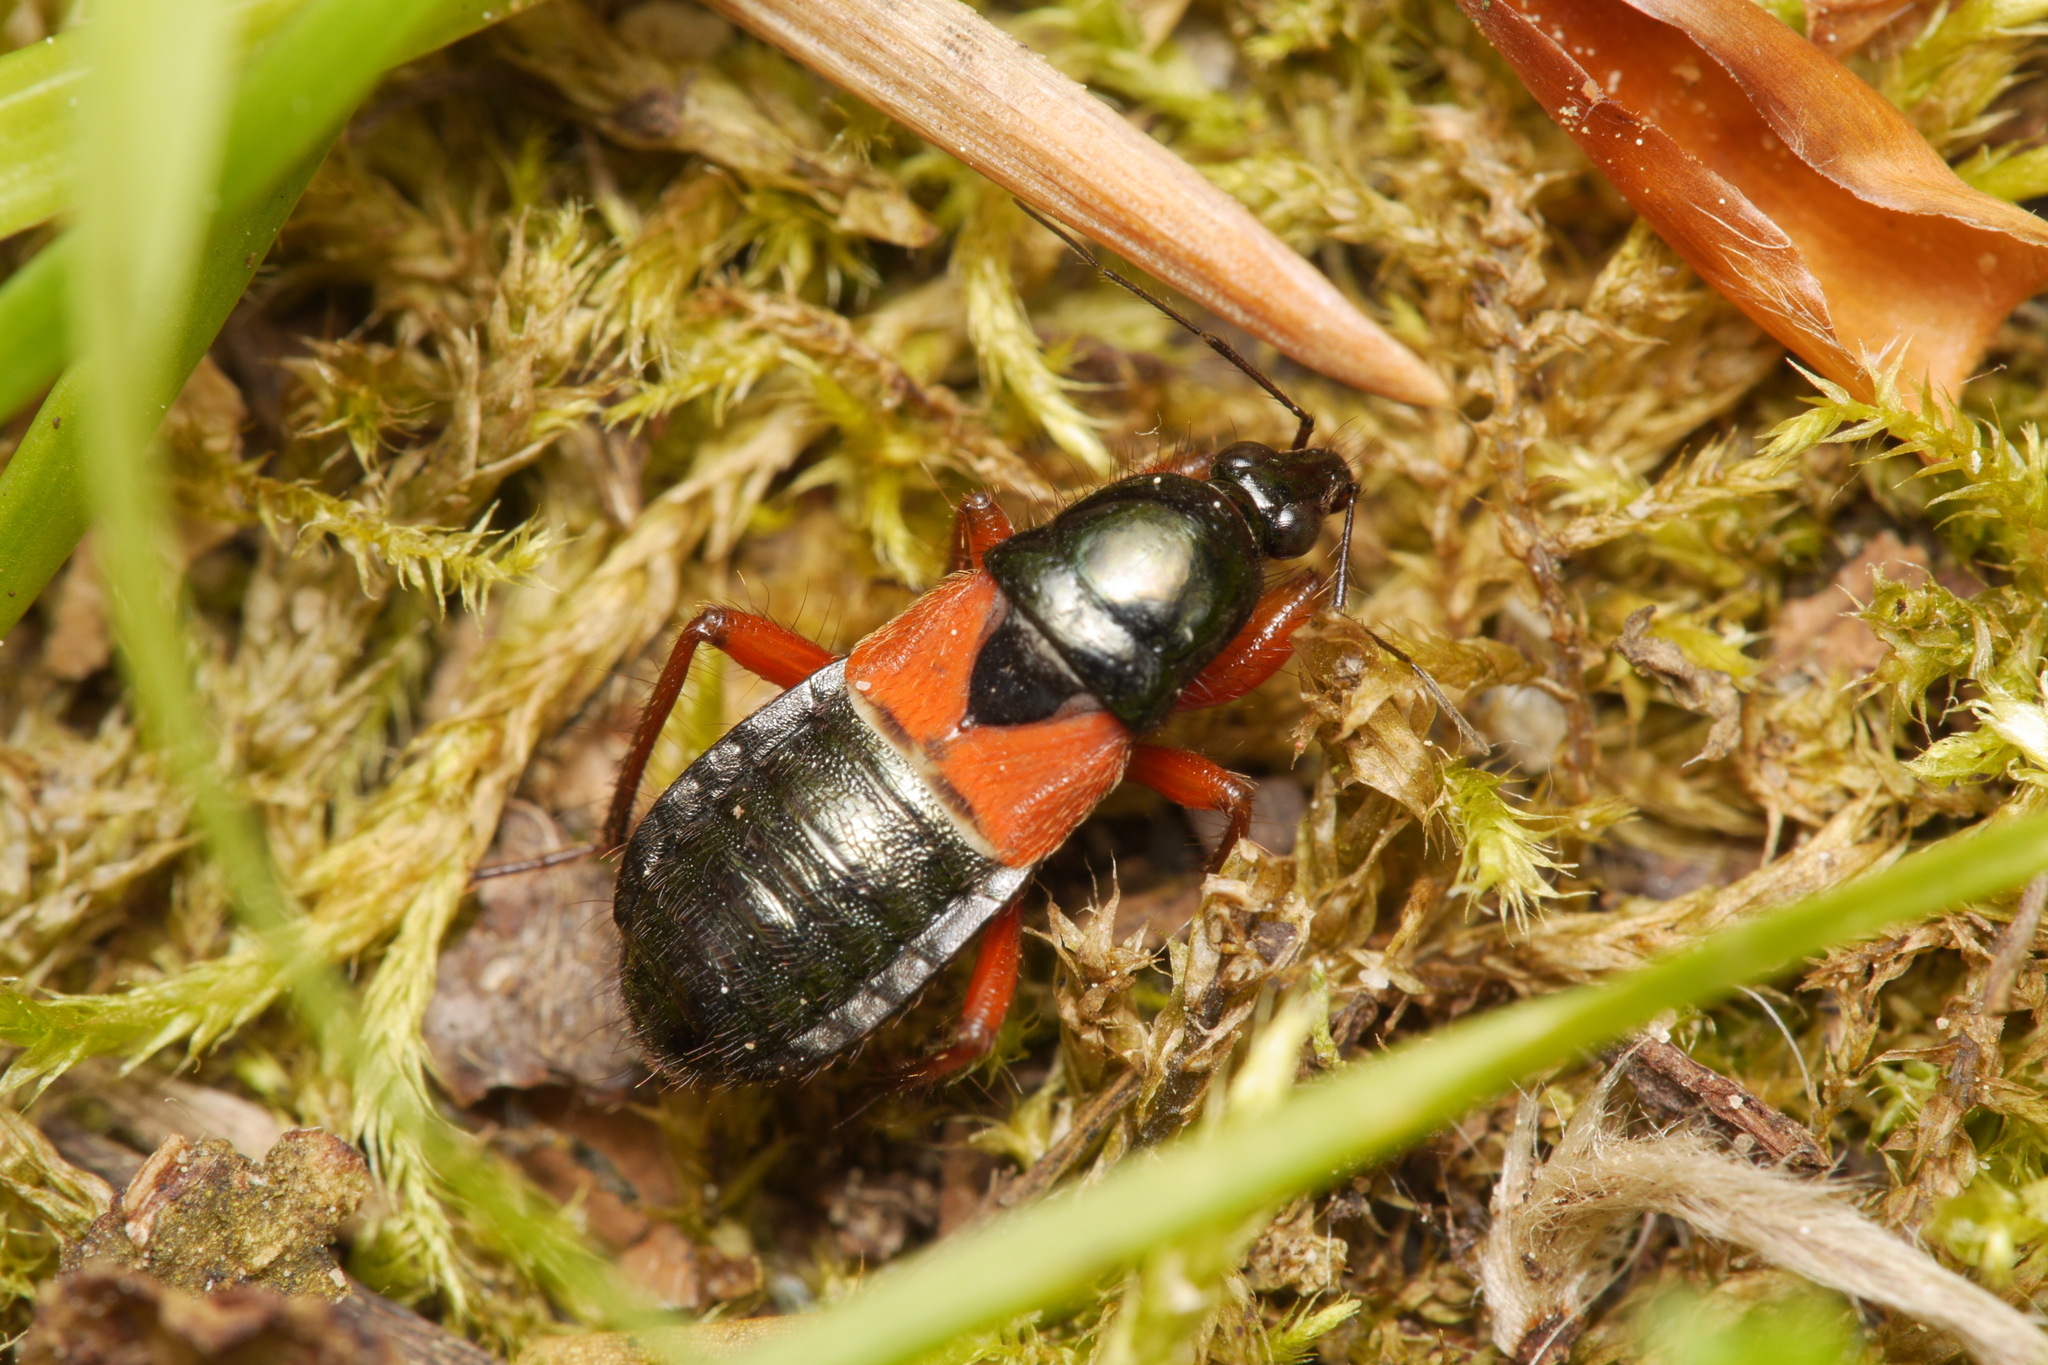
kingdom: Animalia
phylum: Arthropoda
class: Insecta
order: Hemiptera
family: Nabidae
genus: Prostemma
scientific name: Prostemma guttula
